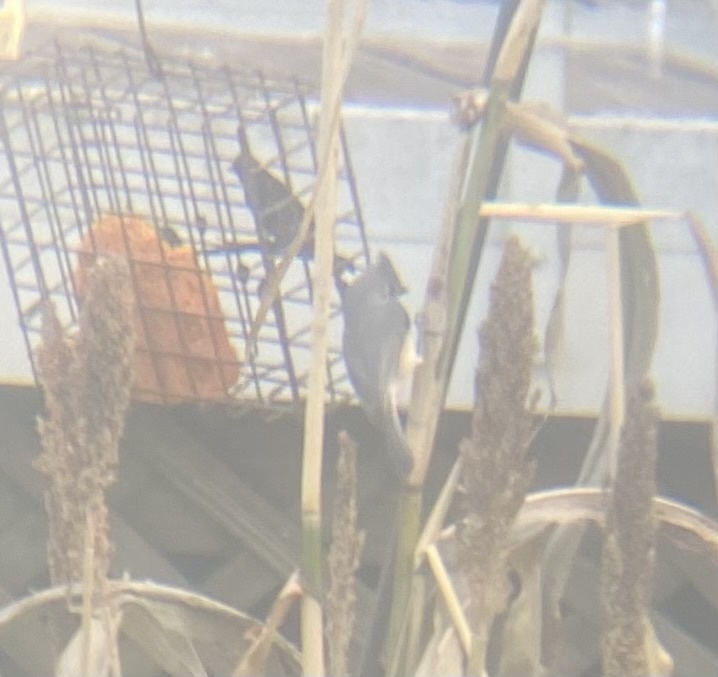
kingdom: Animalia
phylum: Chordata
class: Aves
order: Passeriformes
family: Paridae
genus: Baeolophus
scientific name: Baeolophus bicolor
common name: Tufted titmouse
